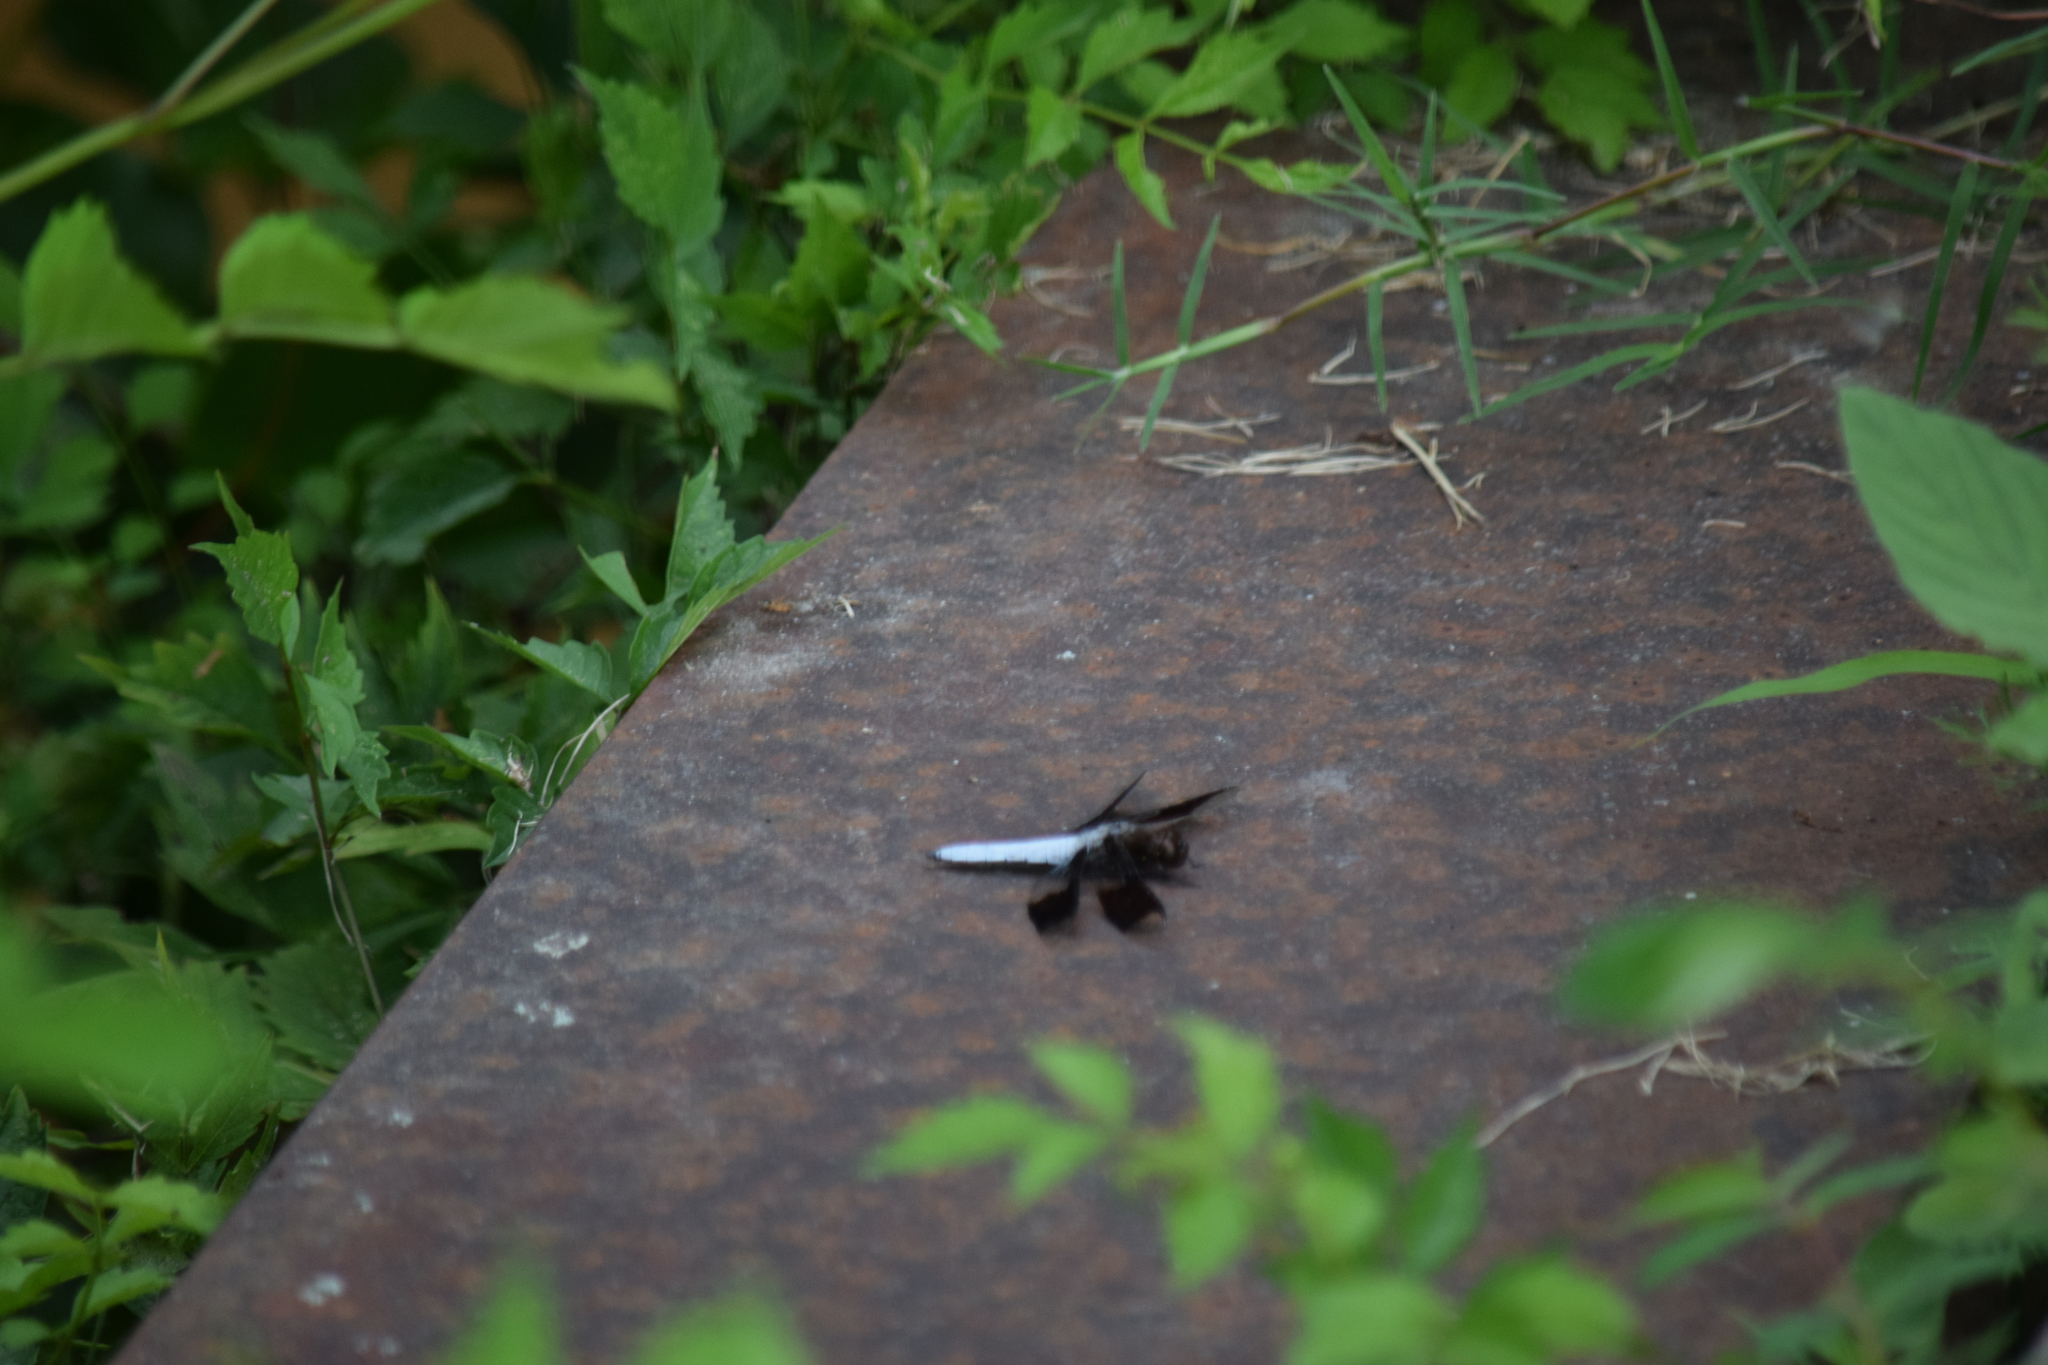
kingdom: Animalia
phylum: Arthropoda
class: Insecta
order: Odonata
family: Libellulidae
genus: Plathemis
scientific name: Plathemis lydia
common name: Common whitetail
